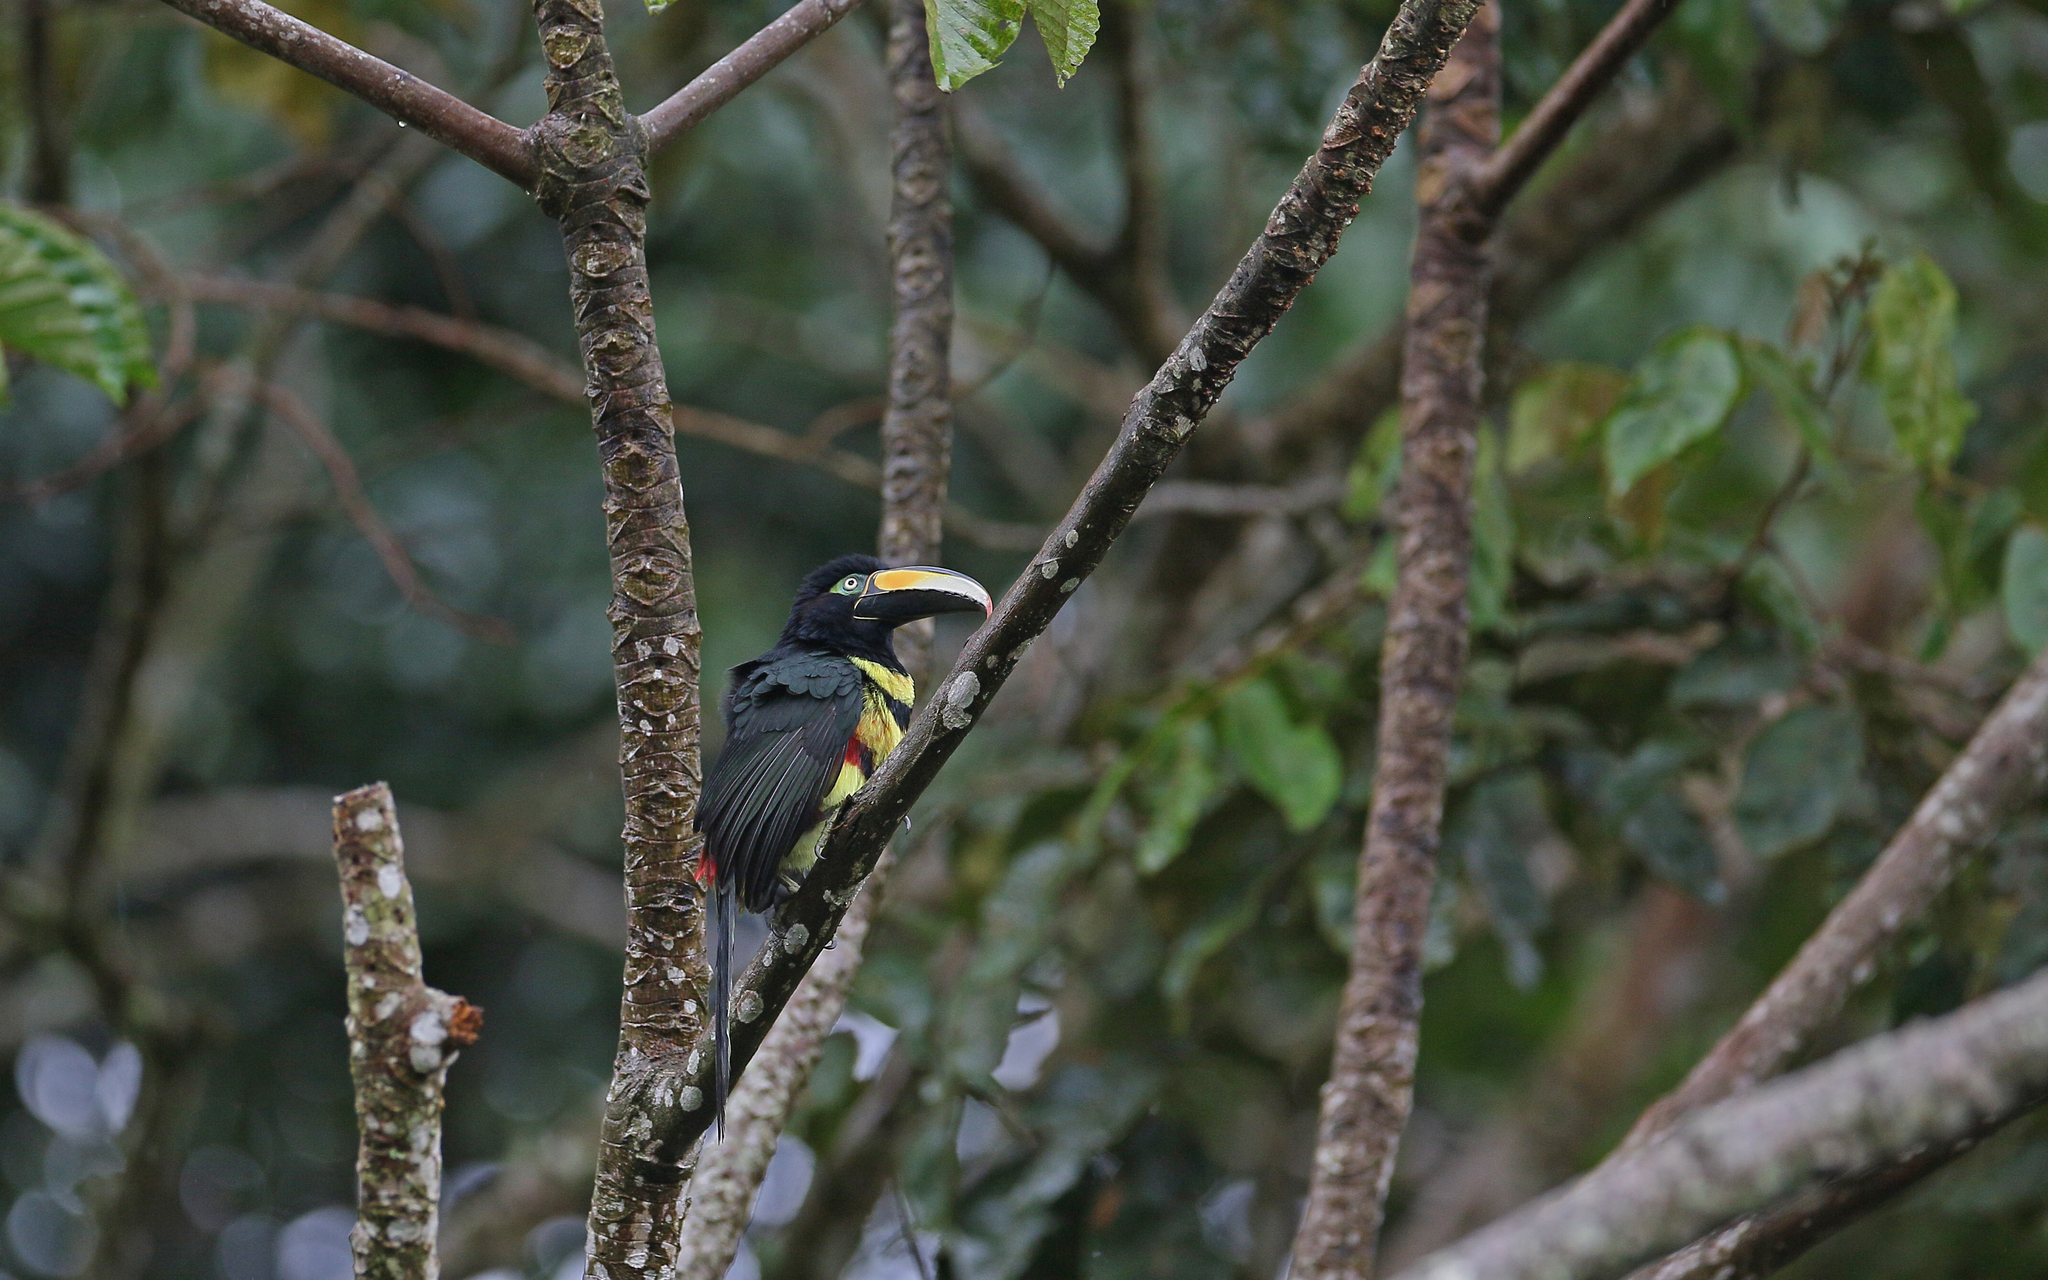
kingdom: Animalia
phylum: Chordata
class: Aves
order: Piciformes
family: Ramphastidae
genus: Pteroglossus
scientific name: Pteroglossus pluricinctus
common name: Many-banded aracari
